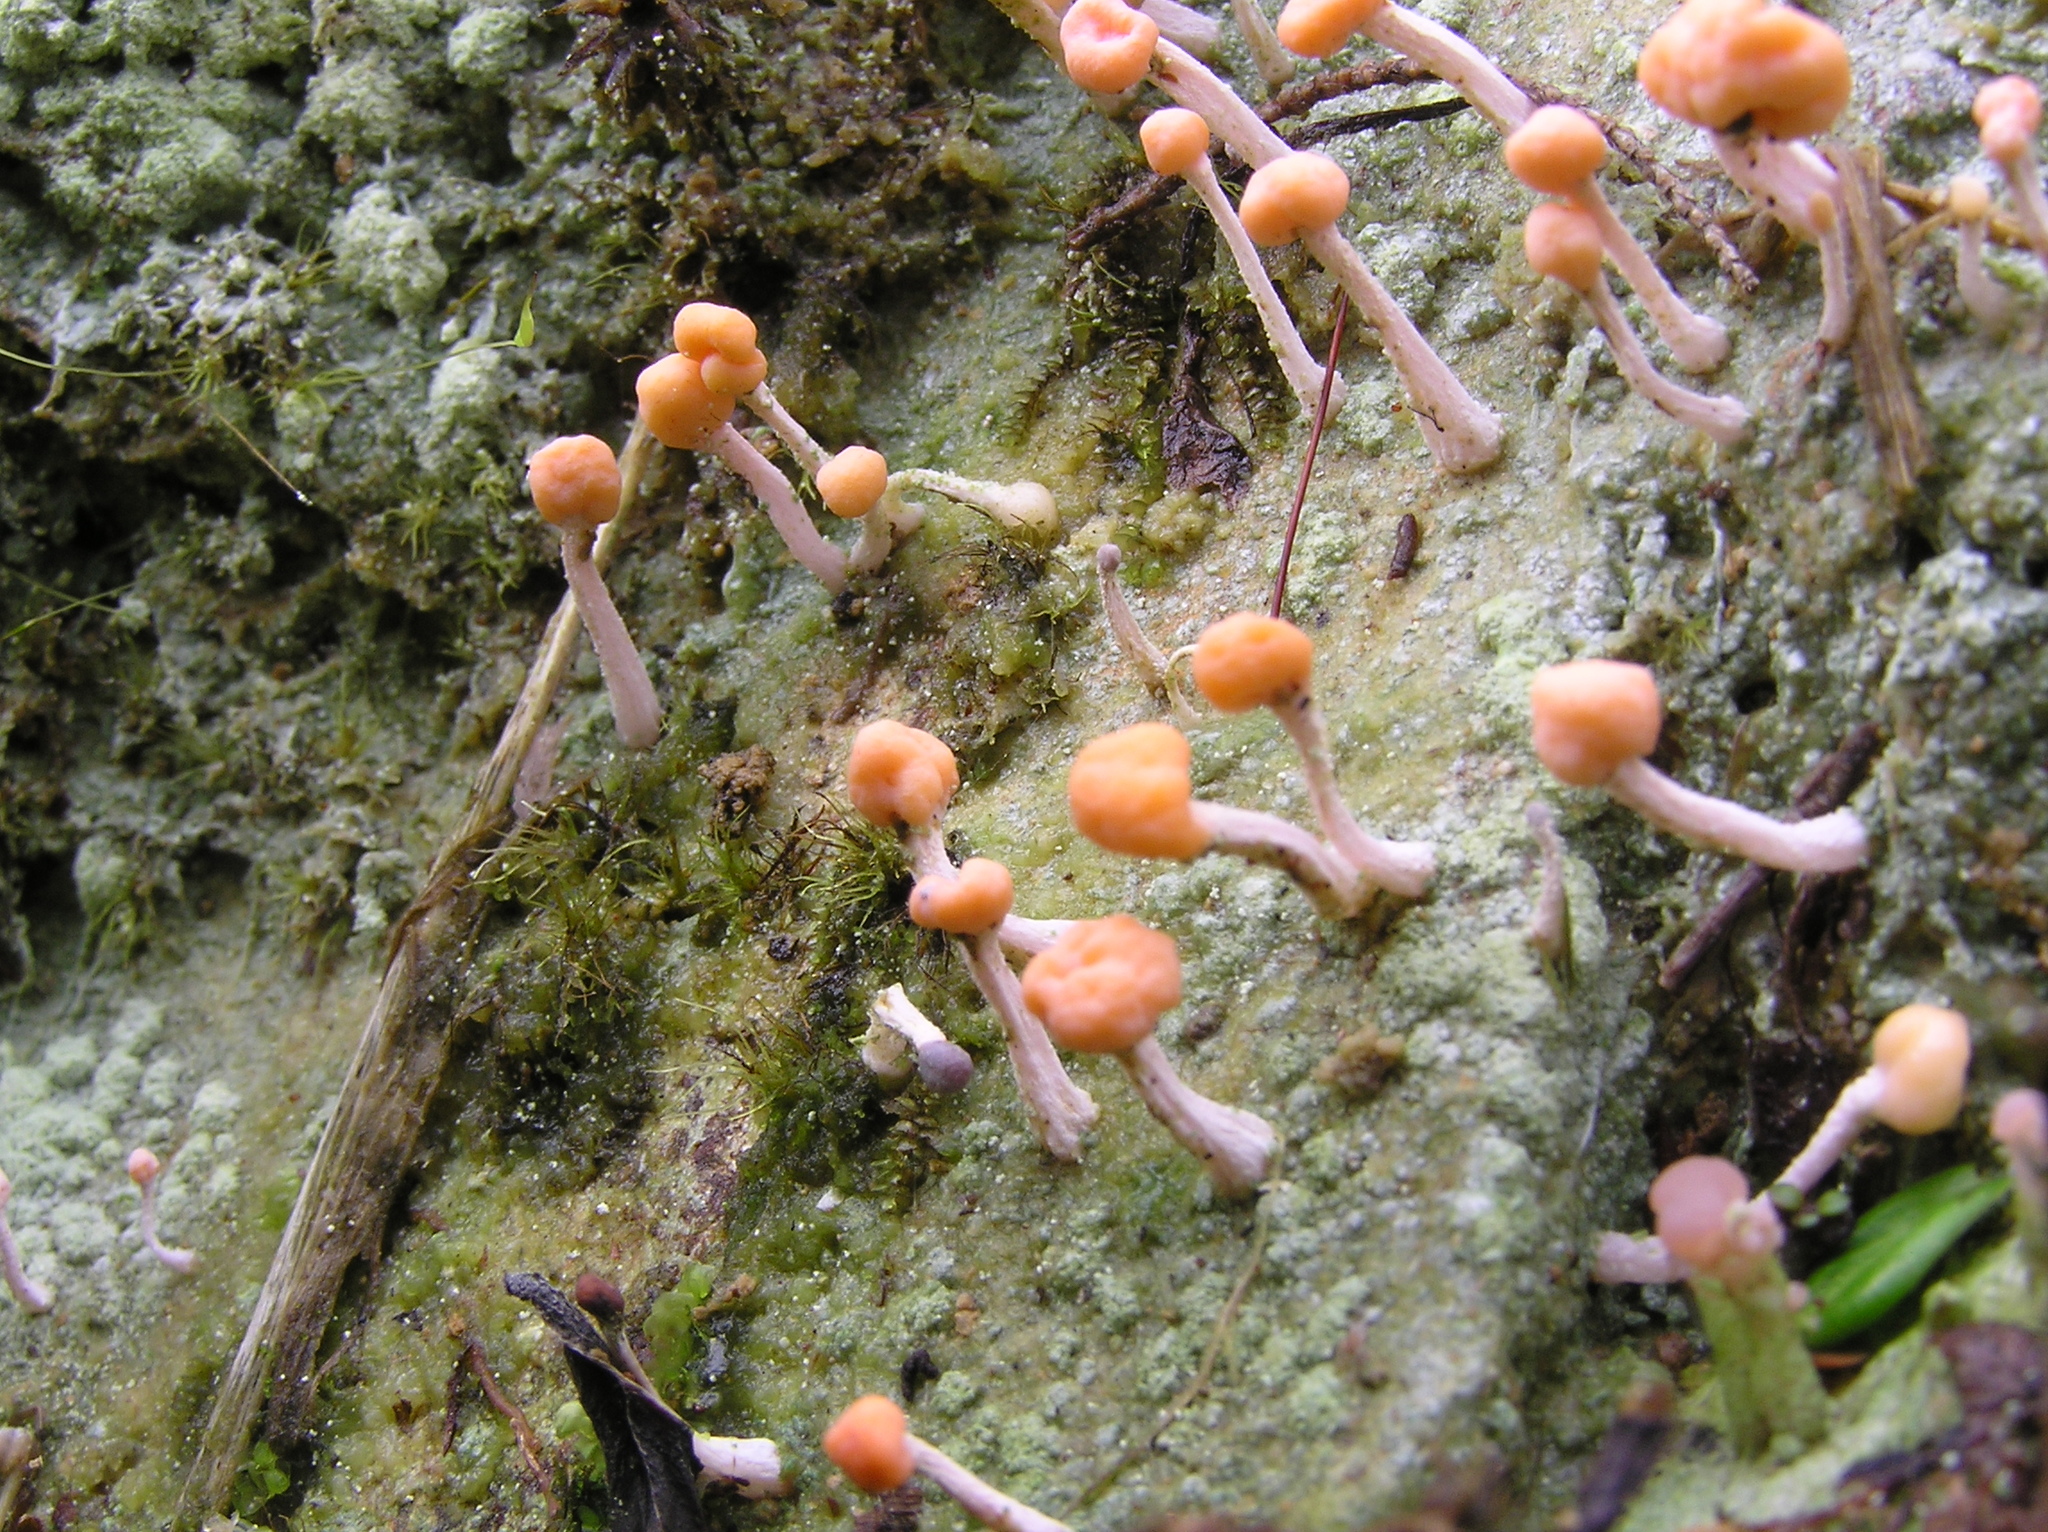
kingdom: Fungi
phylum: Ascomycota
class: Lecanoromycetes
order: Pertusariales
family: Icmadophilaceae
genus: Dibaeis
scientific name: Dibaeis arcuata
